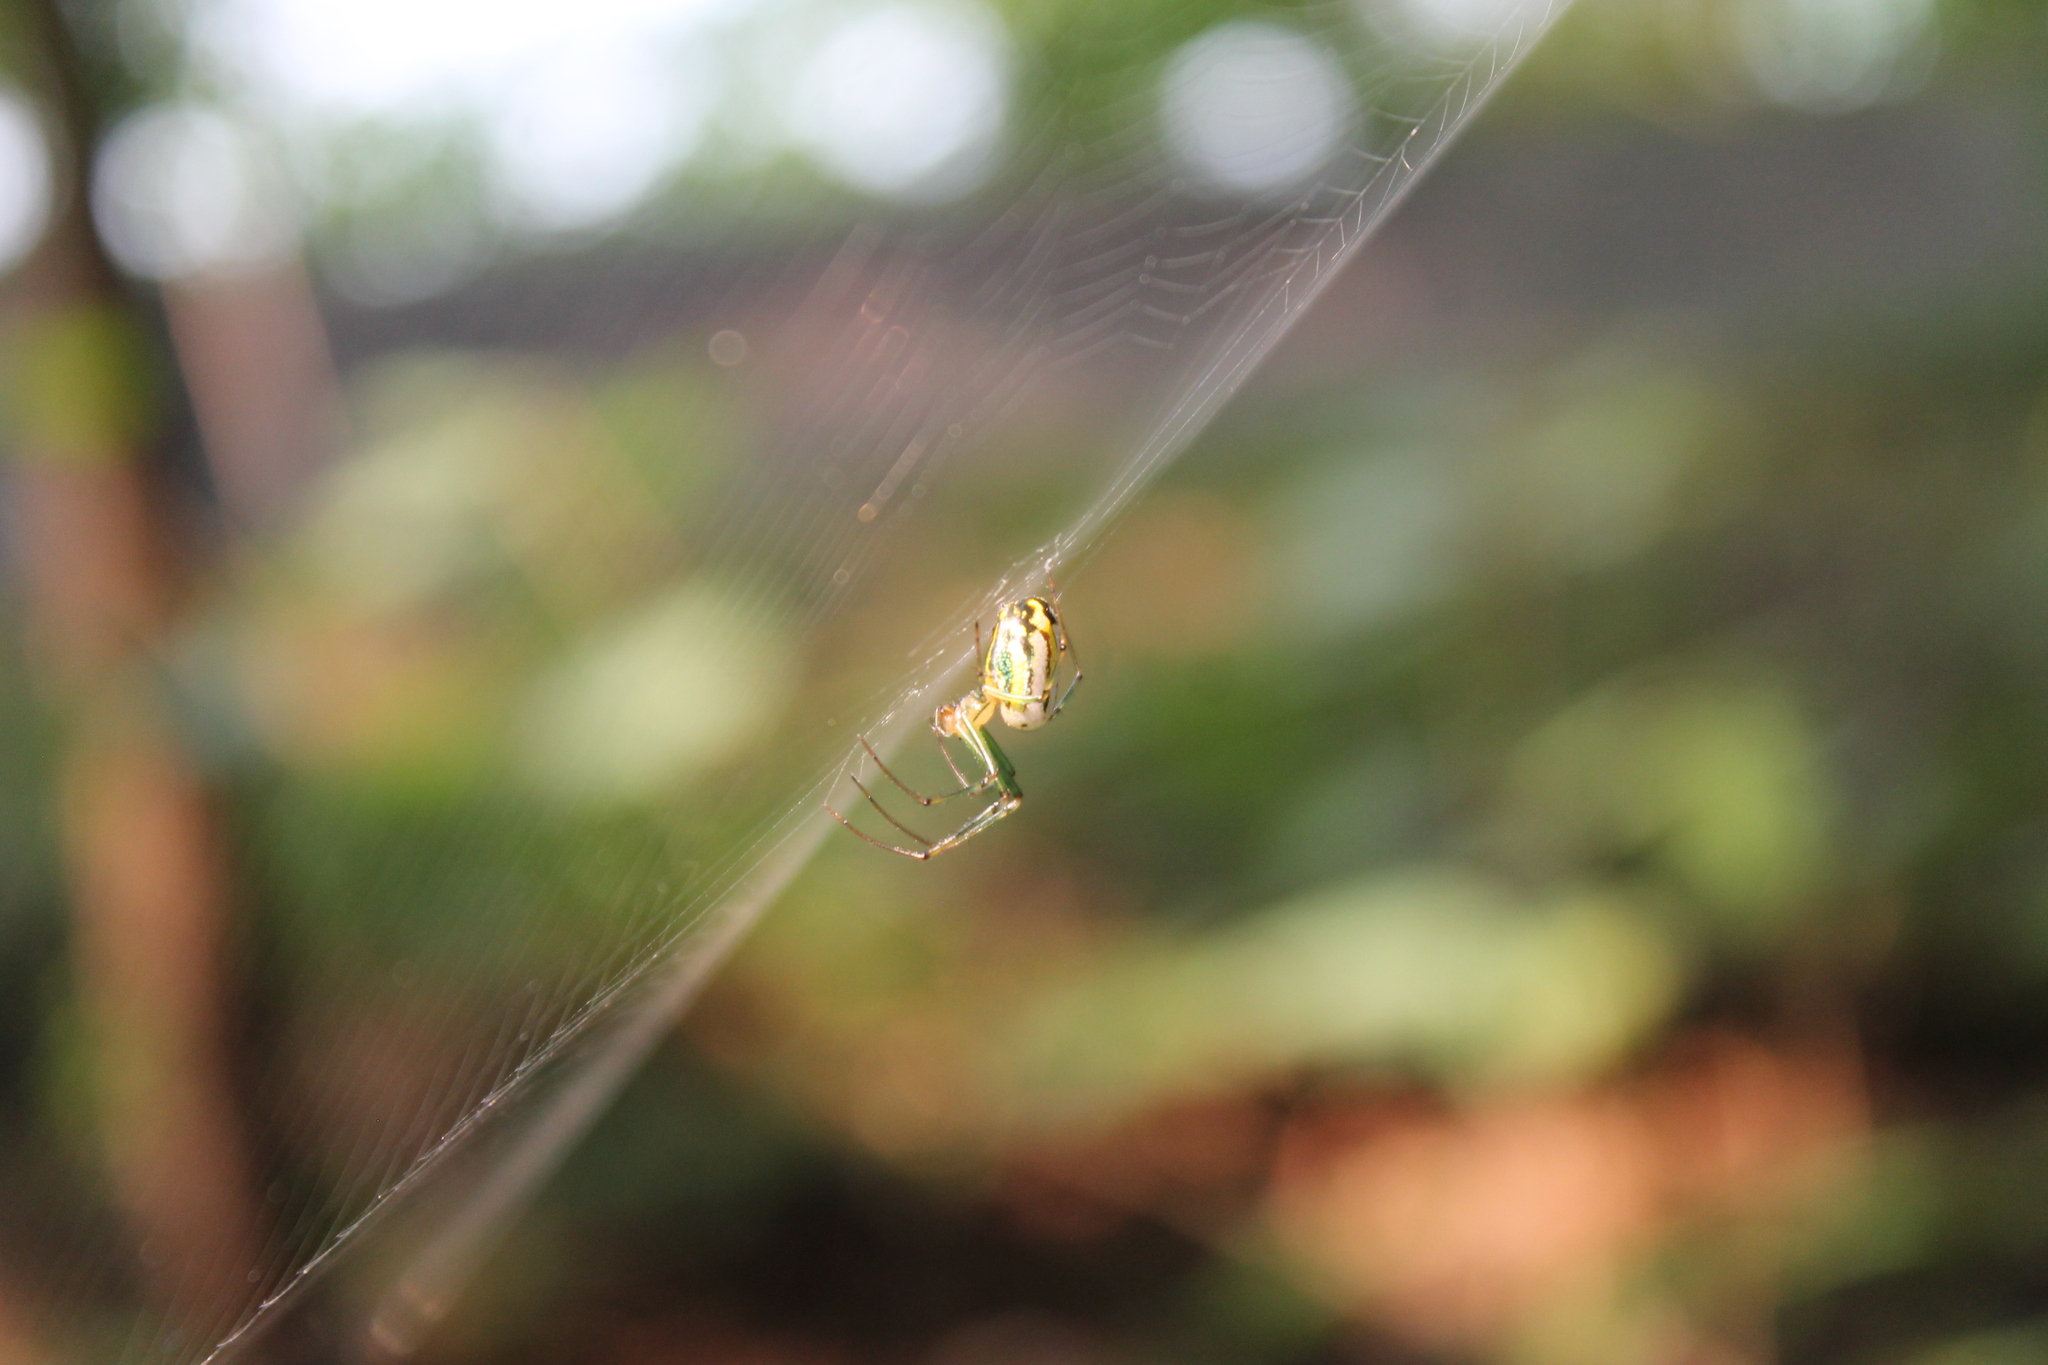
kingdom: Animalia
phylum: Arthropoda
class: Arachnida
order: Araneae
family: Tetragnathidae
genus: Leucauge
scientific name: Leucauge venusta
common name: Longjawed orb weavers
